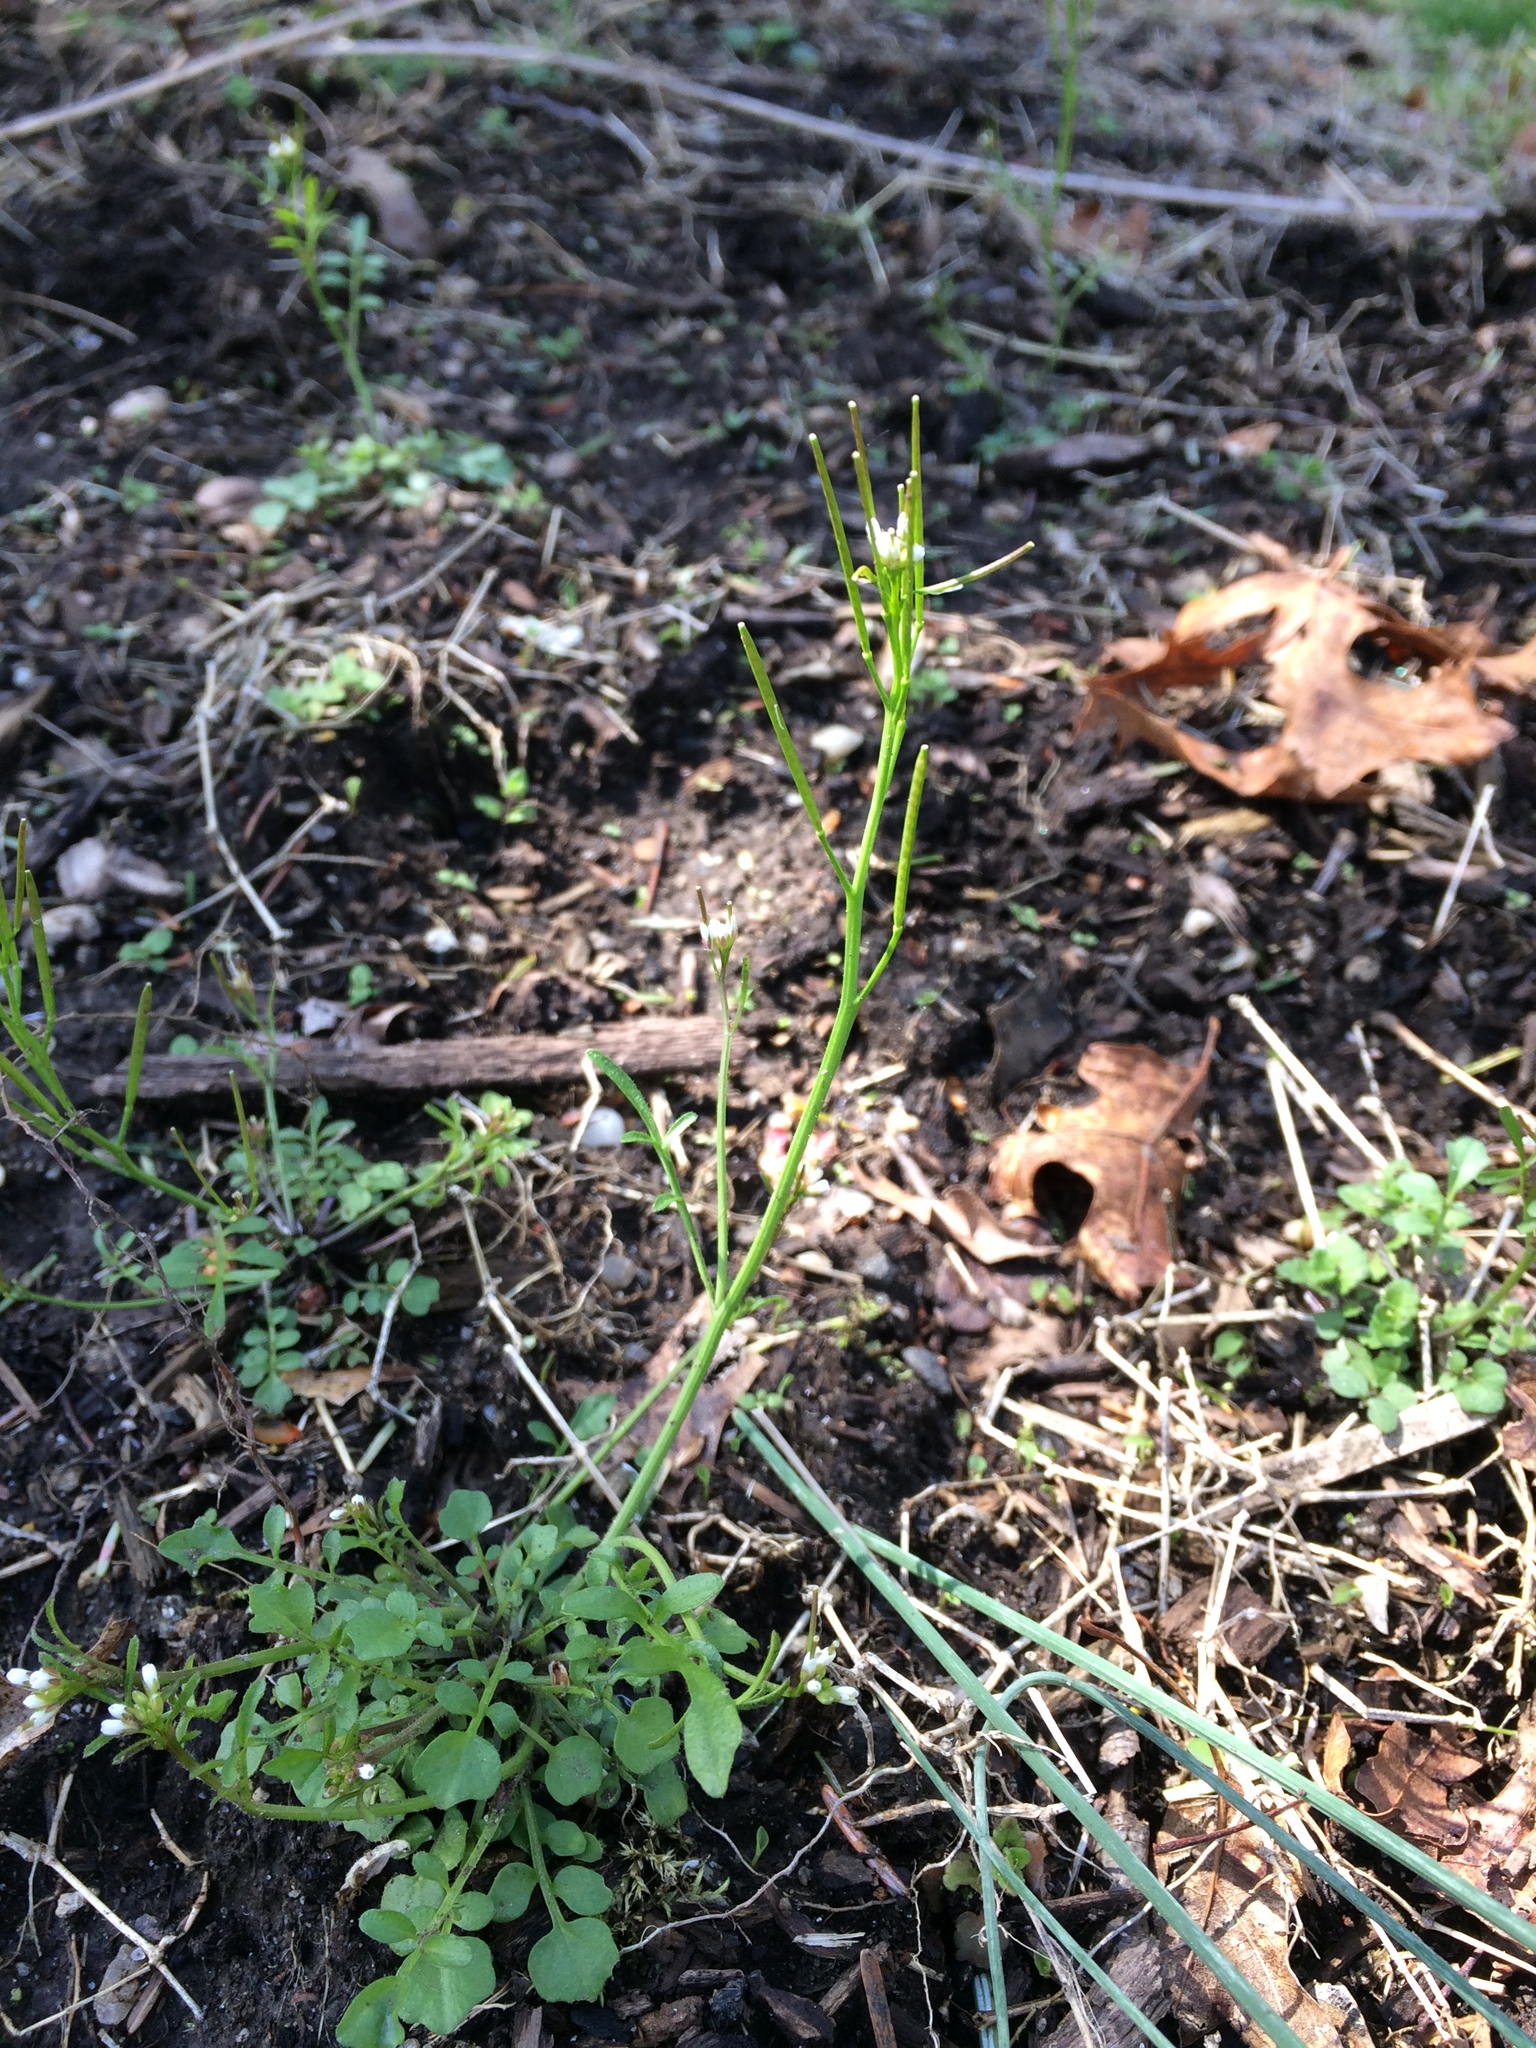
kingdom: Plantae
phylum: Tracheophyta
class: Magnoliopsida
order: Brassicales
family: Brassicaceae
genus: Cardamine
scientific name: Cardamine hirsuta
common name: Hairy bittercress
